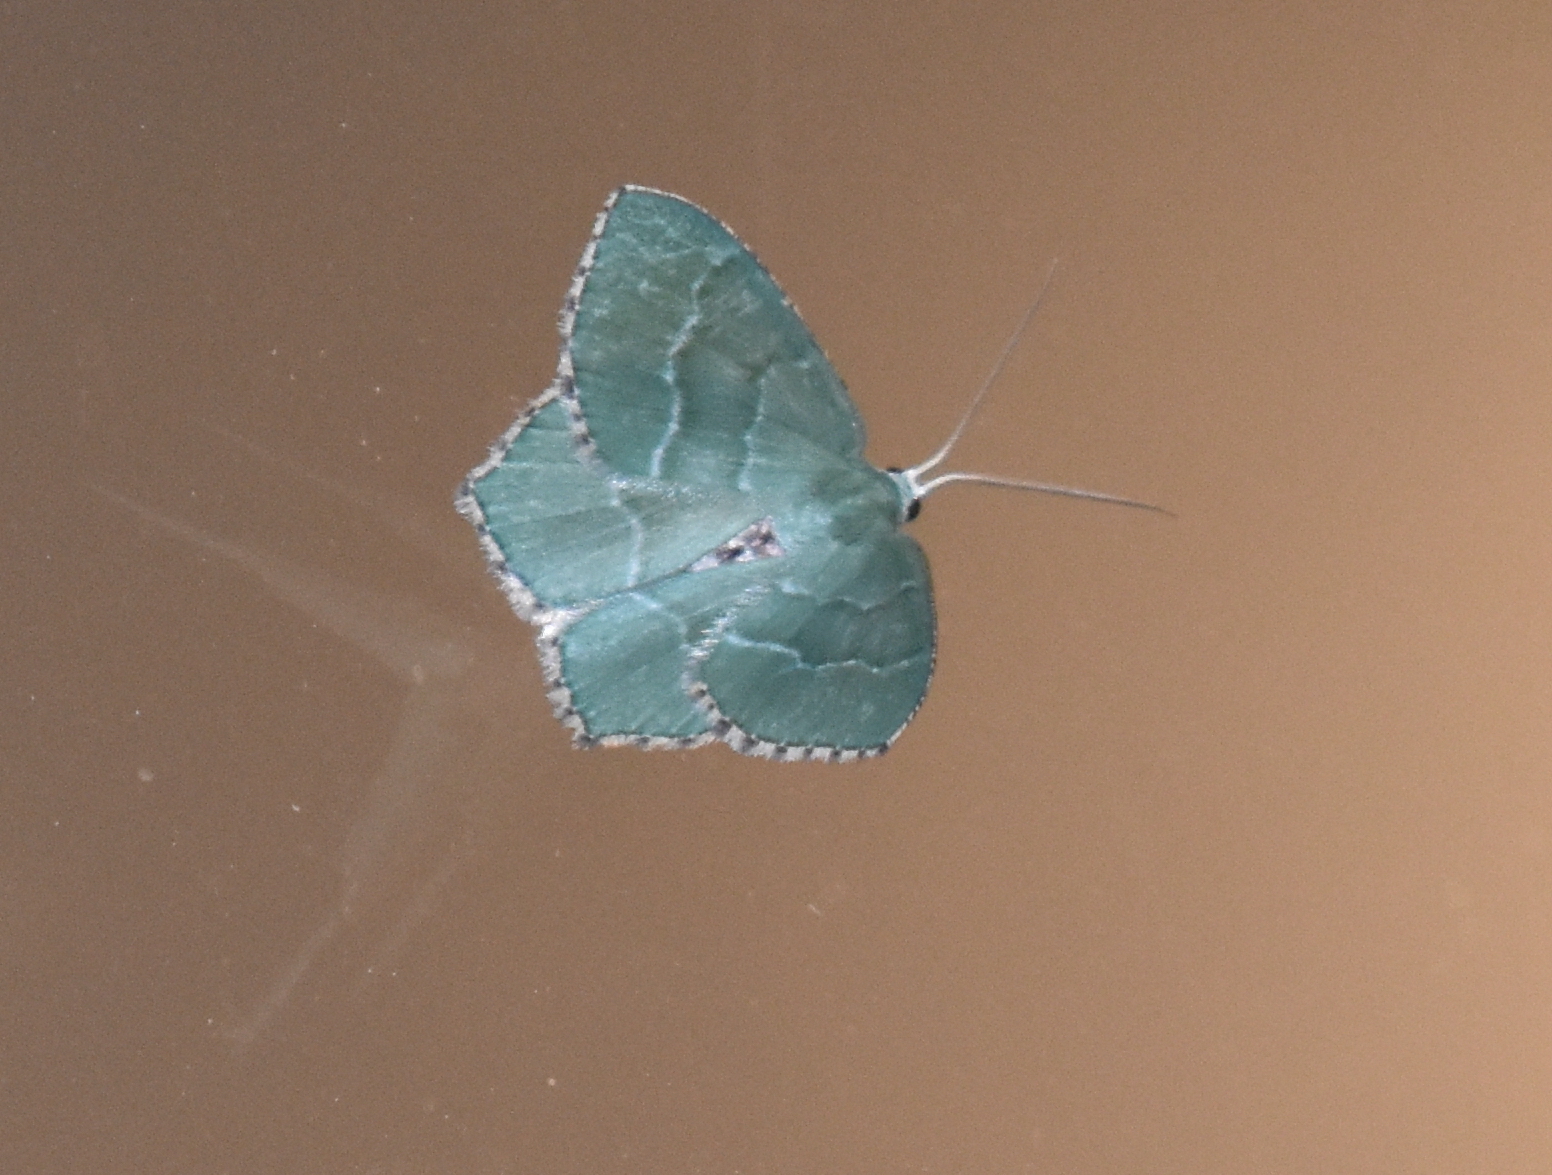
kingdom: Animalia
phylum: Arthropoda
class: Insecta
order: Lepidoptera
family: Geometridae
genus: Hemithea
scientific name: Hemithea aestivaria
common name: Common emerald
